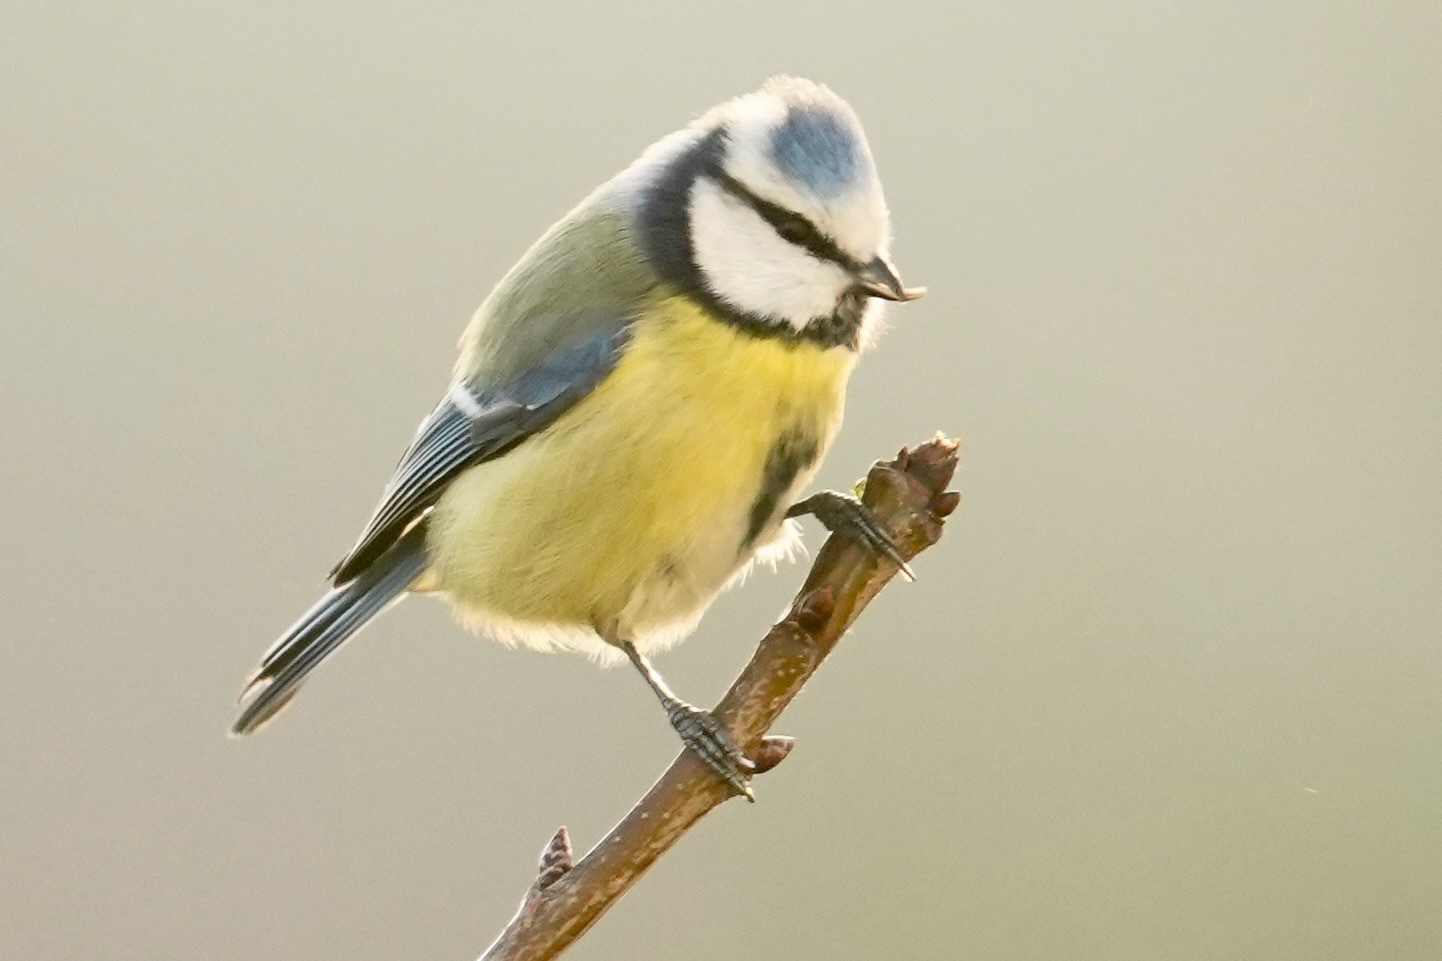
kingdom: Animalia
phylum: Chordata
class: Aves
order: Passeriformes
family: Paridae
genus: Cyanistes
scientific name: Cyanistes caeruleus
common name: Eurasian blue tit
